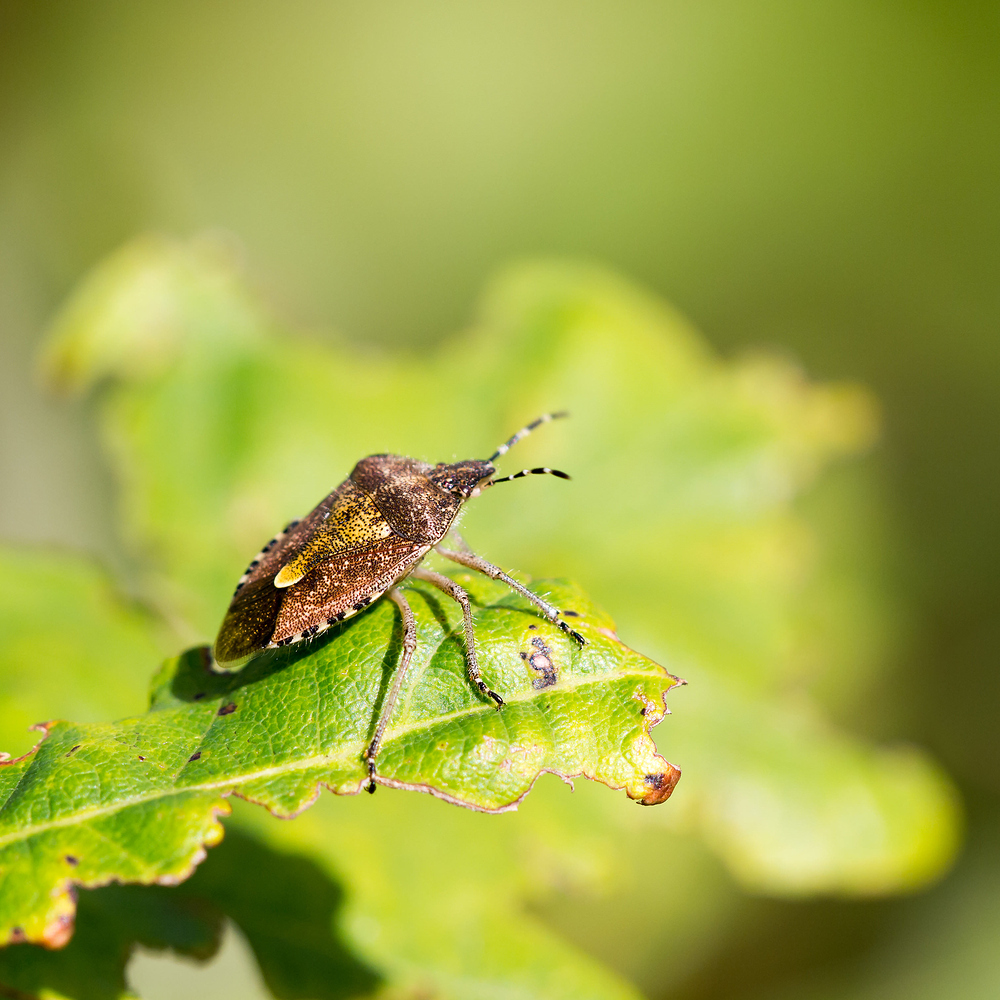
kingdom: Animalia
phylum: Arthropoda
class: Insecta
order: Hemiptera
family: Pentatomidae
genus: Dolycoris
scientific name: Dolycoris baccarum
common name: Sloe bug
